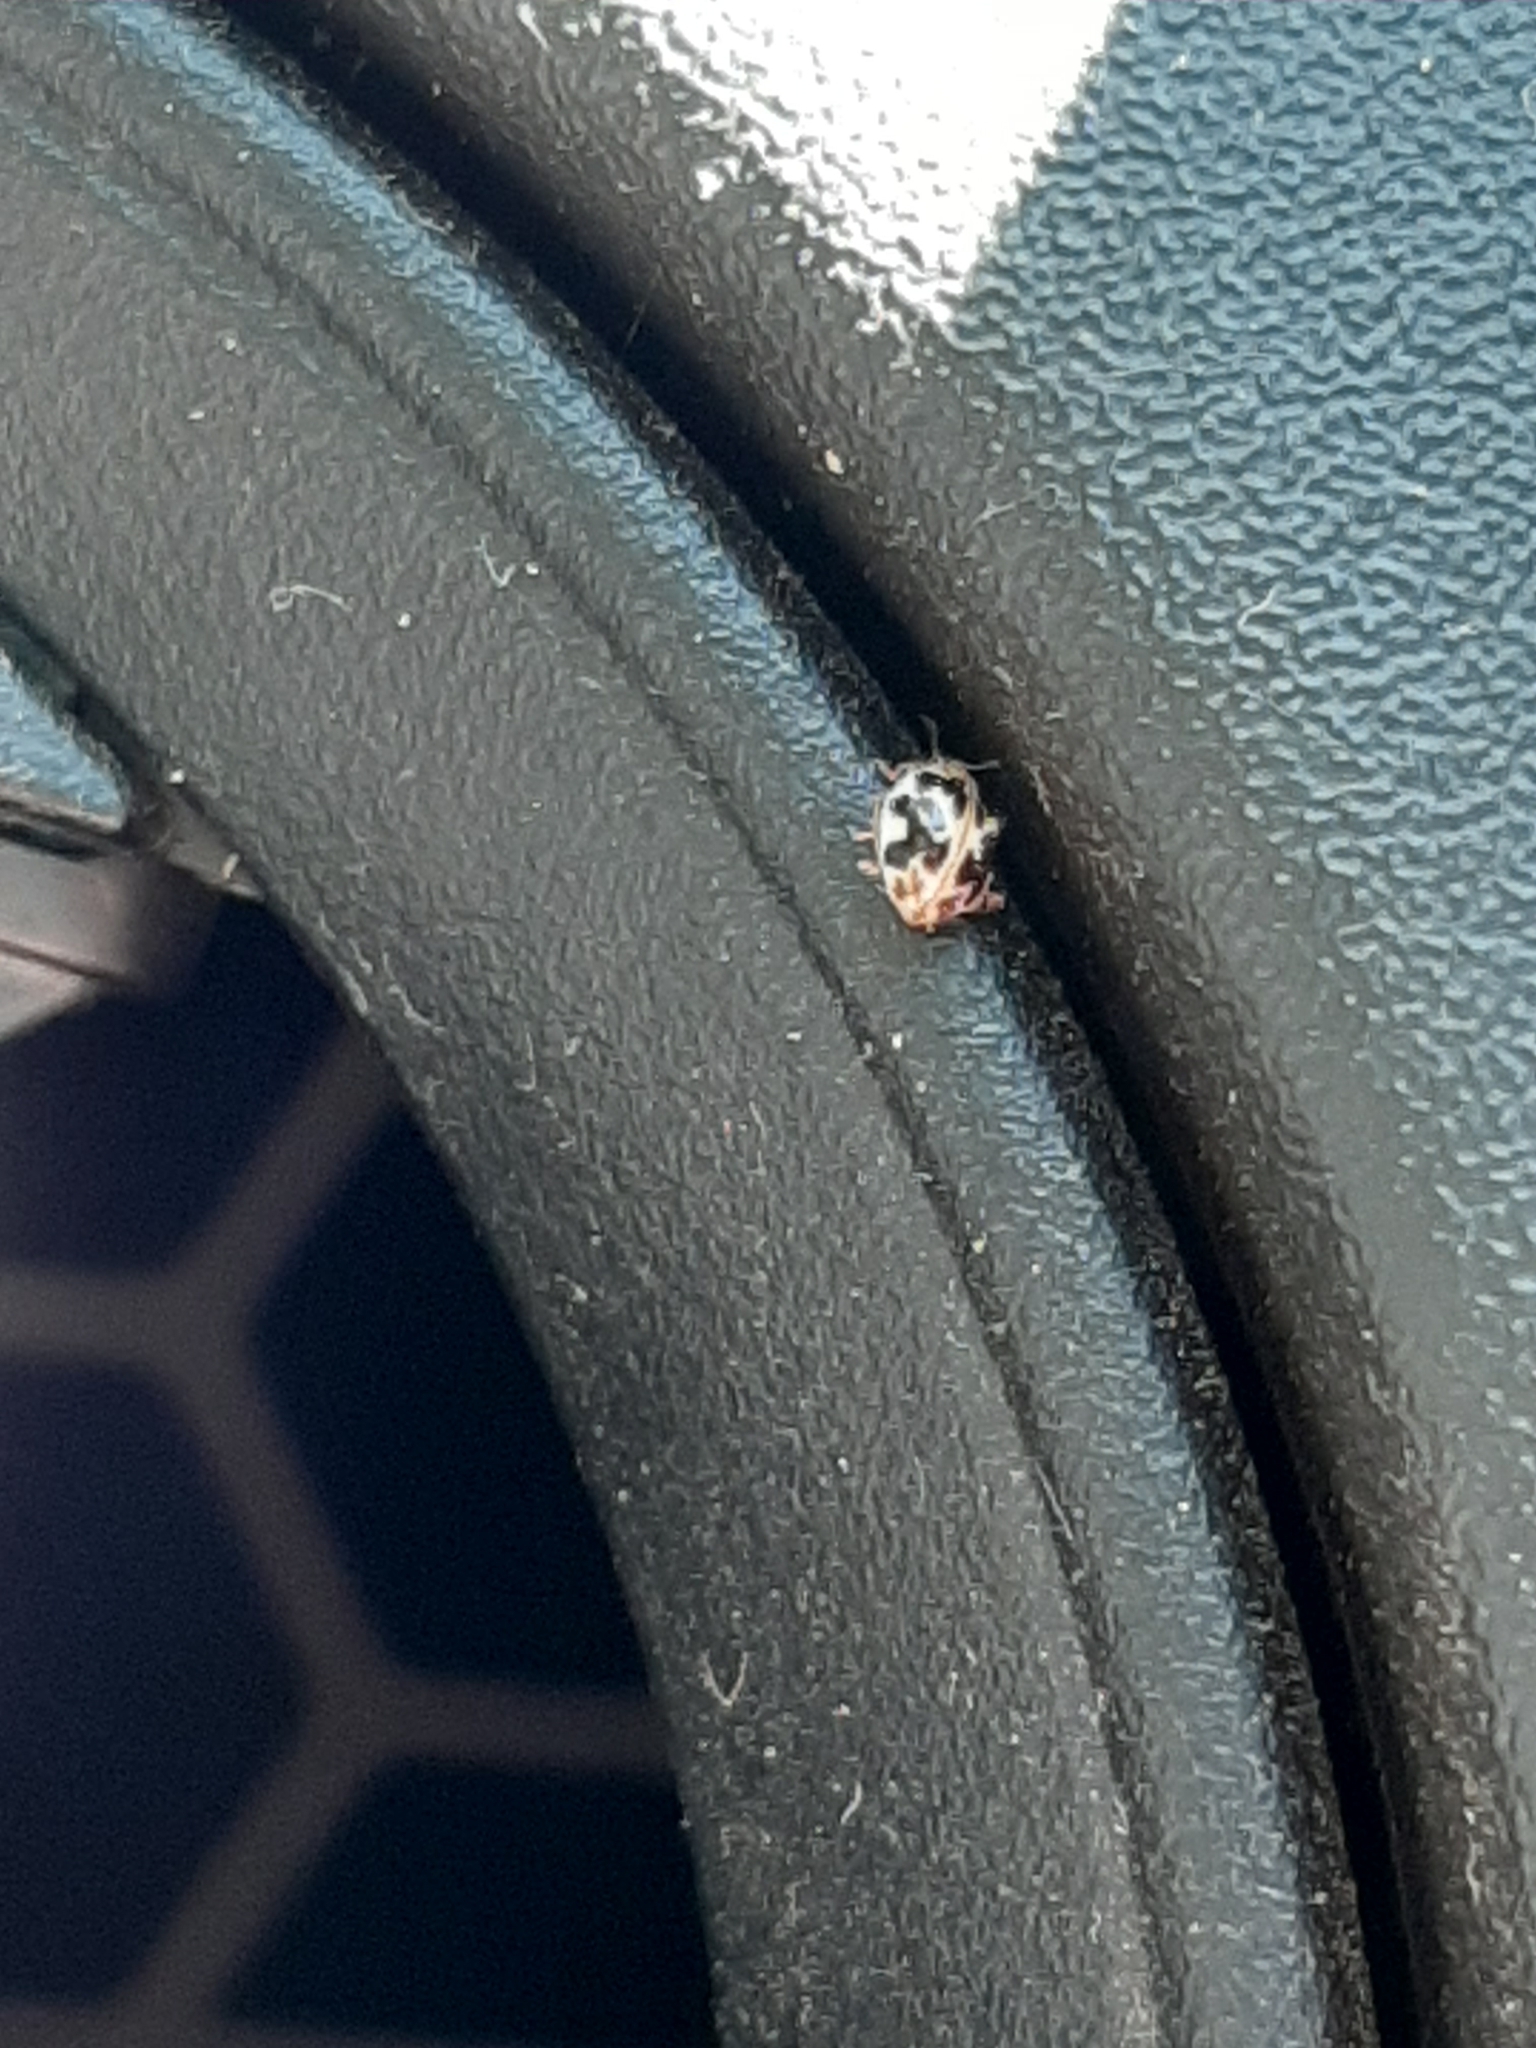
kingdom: Animalia
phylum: Arthropoda
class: Insecta
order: Coleoptera
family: Coccinellidae
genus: Psyllobora
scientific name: Psyllobora vigintimaculata
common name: Ladybird beetle
